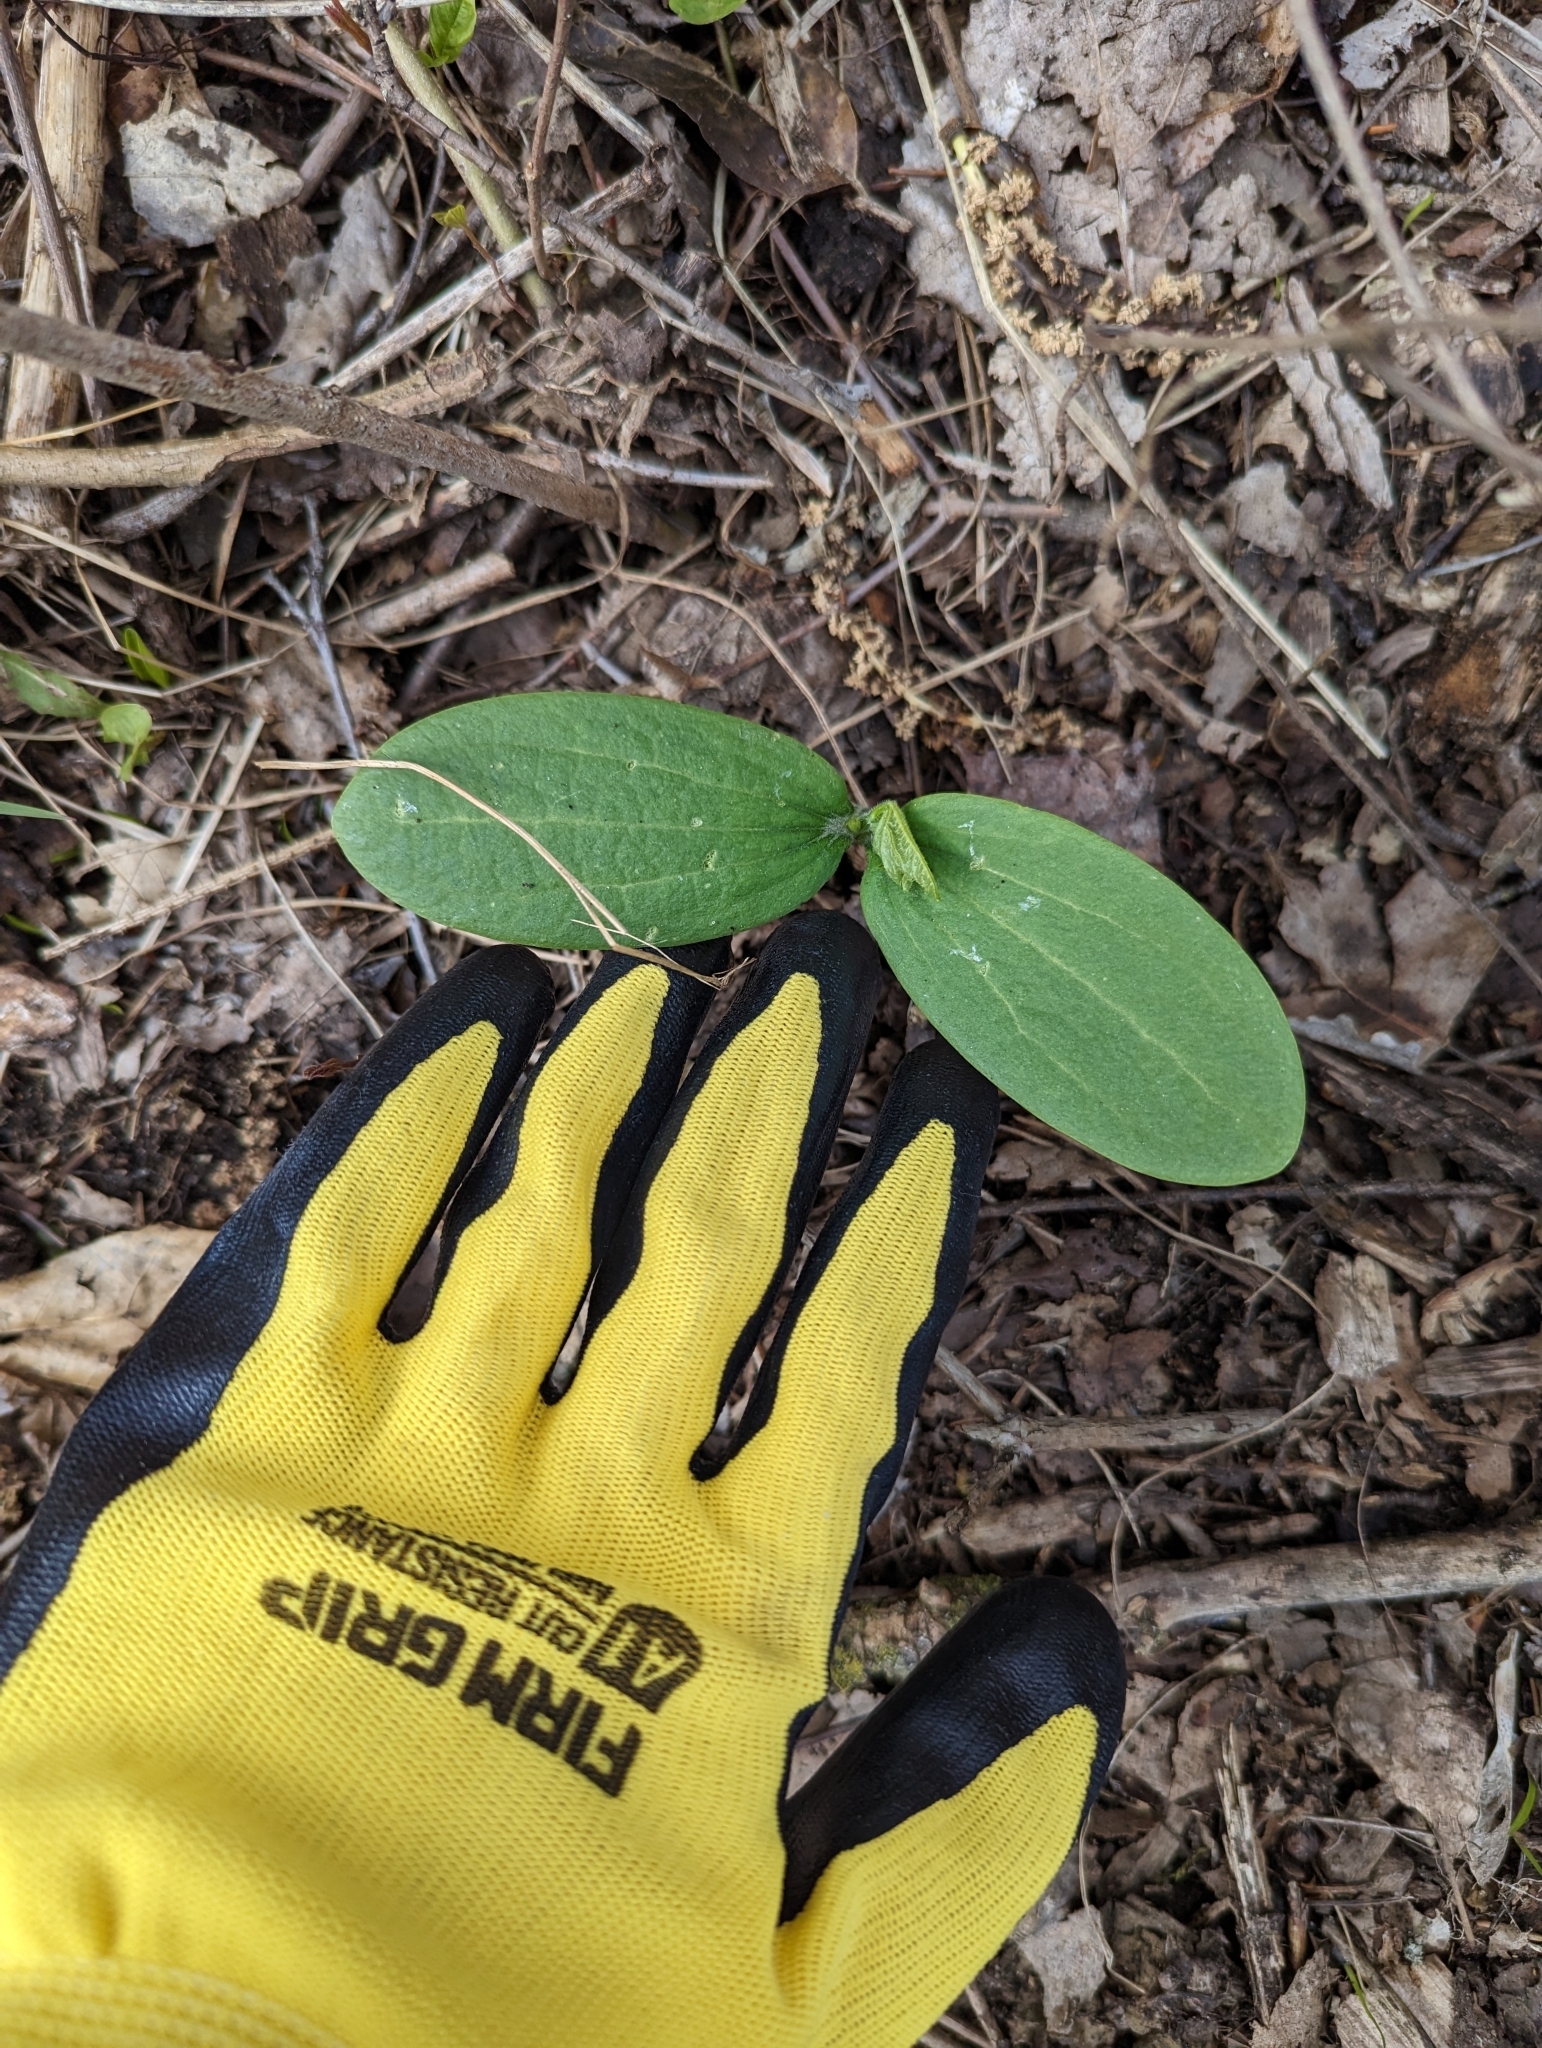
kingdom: Plantae
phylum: Tracheophyta
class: Magnoliopsida
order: Cucurbitales
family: Cucurbitaceae
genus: Echinocystis
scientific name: Echinocystis lobata
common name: Wild cucumber
